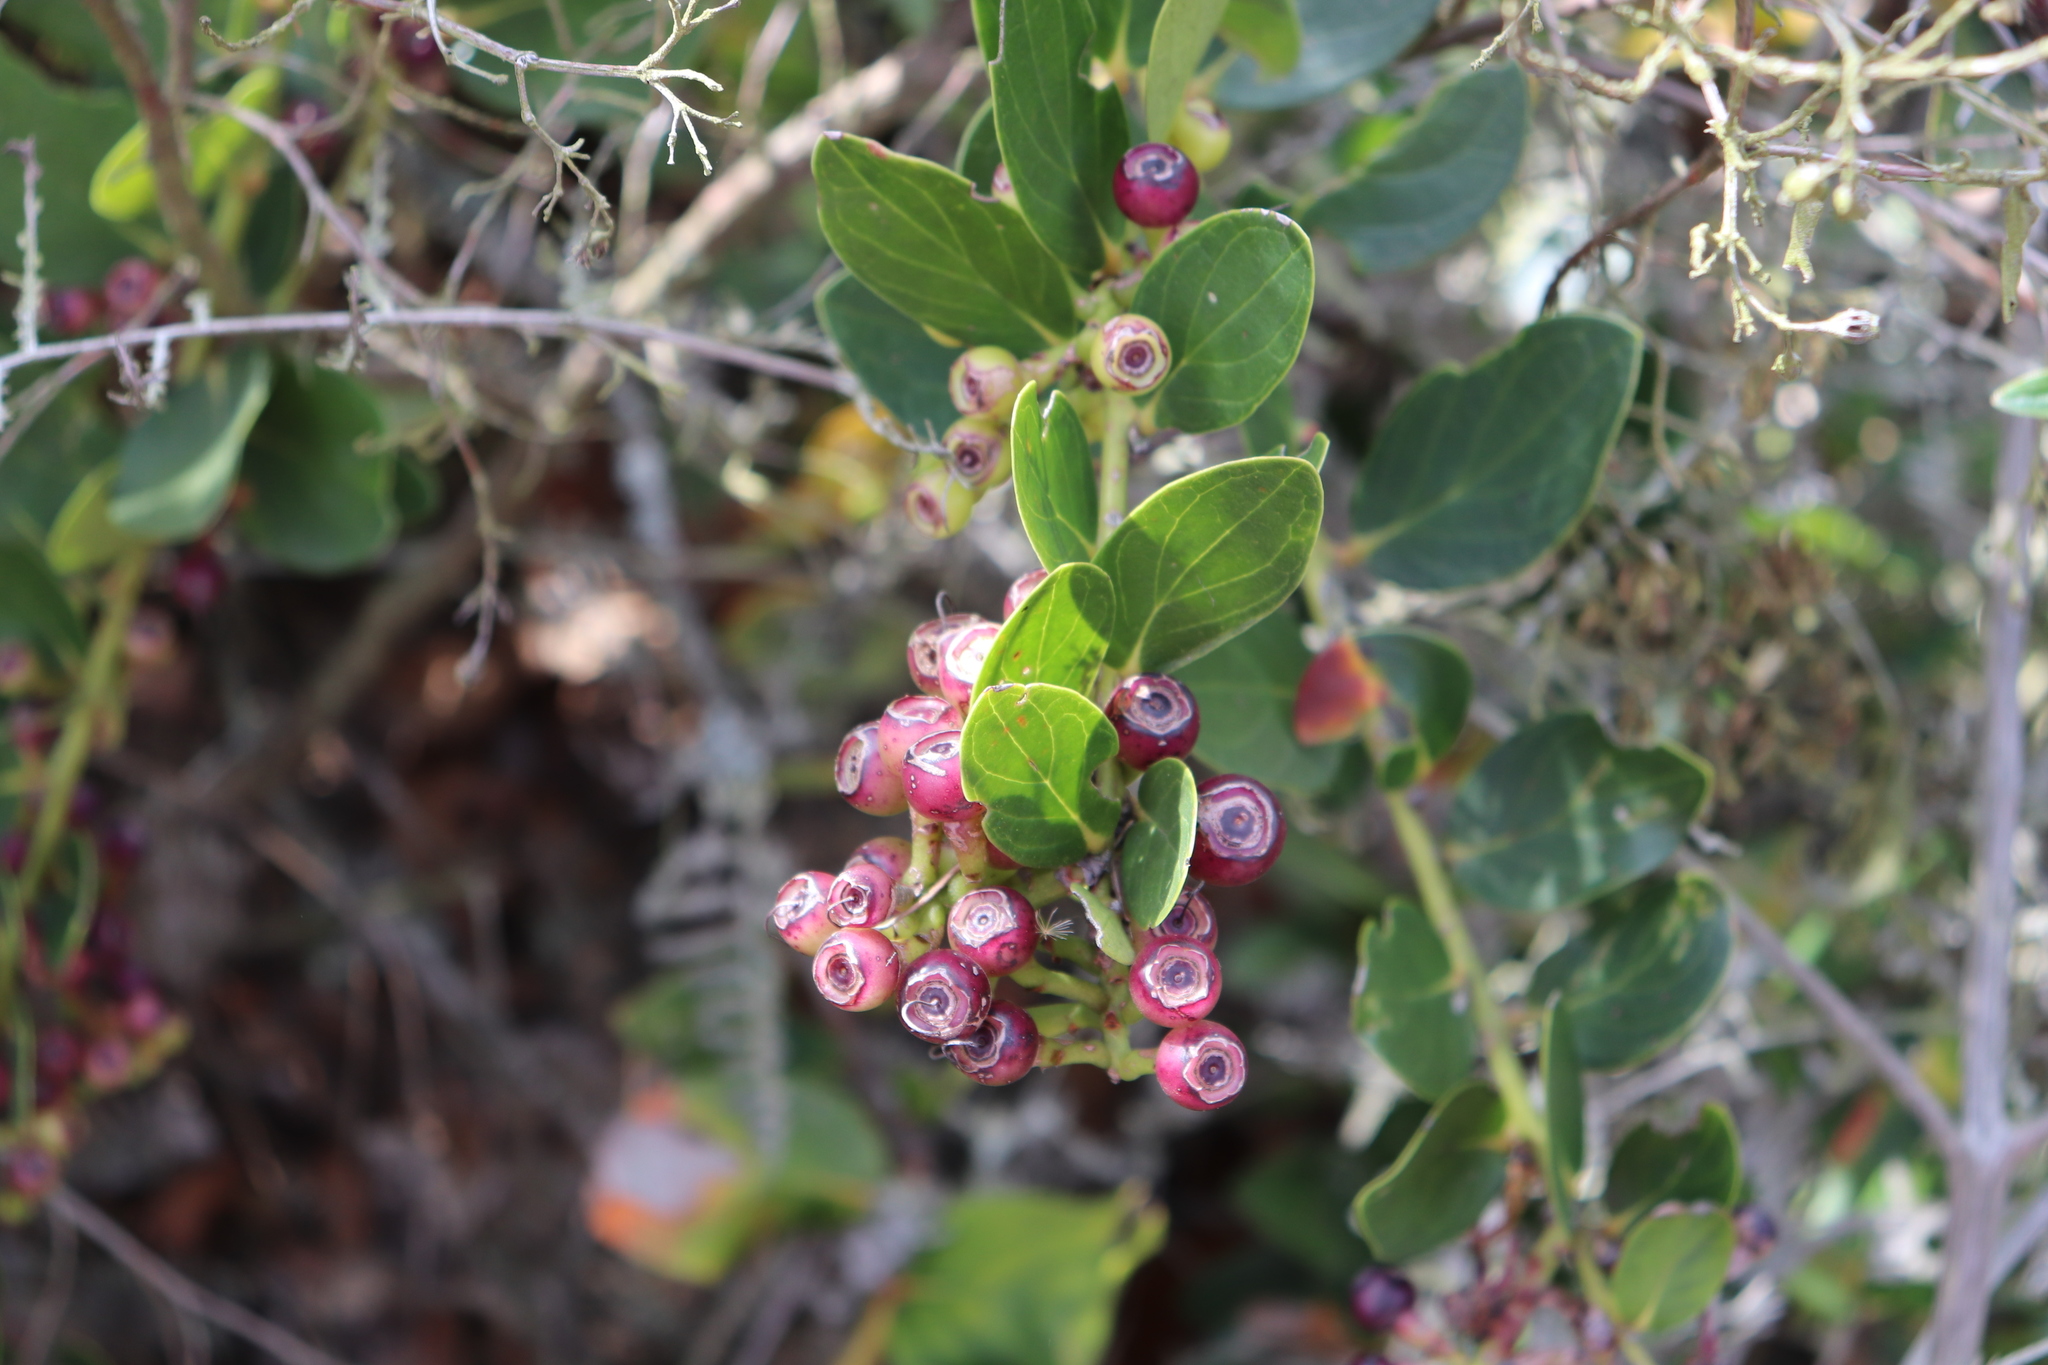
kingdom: Plantae
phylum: Tracheophyta
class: Magnoliopsida
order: Ericales
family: Ericaceae
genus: Macleania
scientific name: Macleania rupestris
